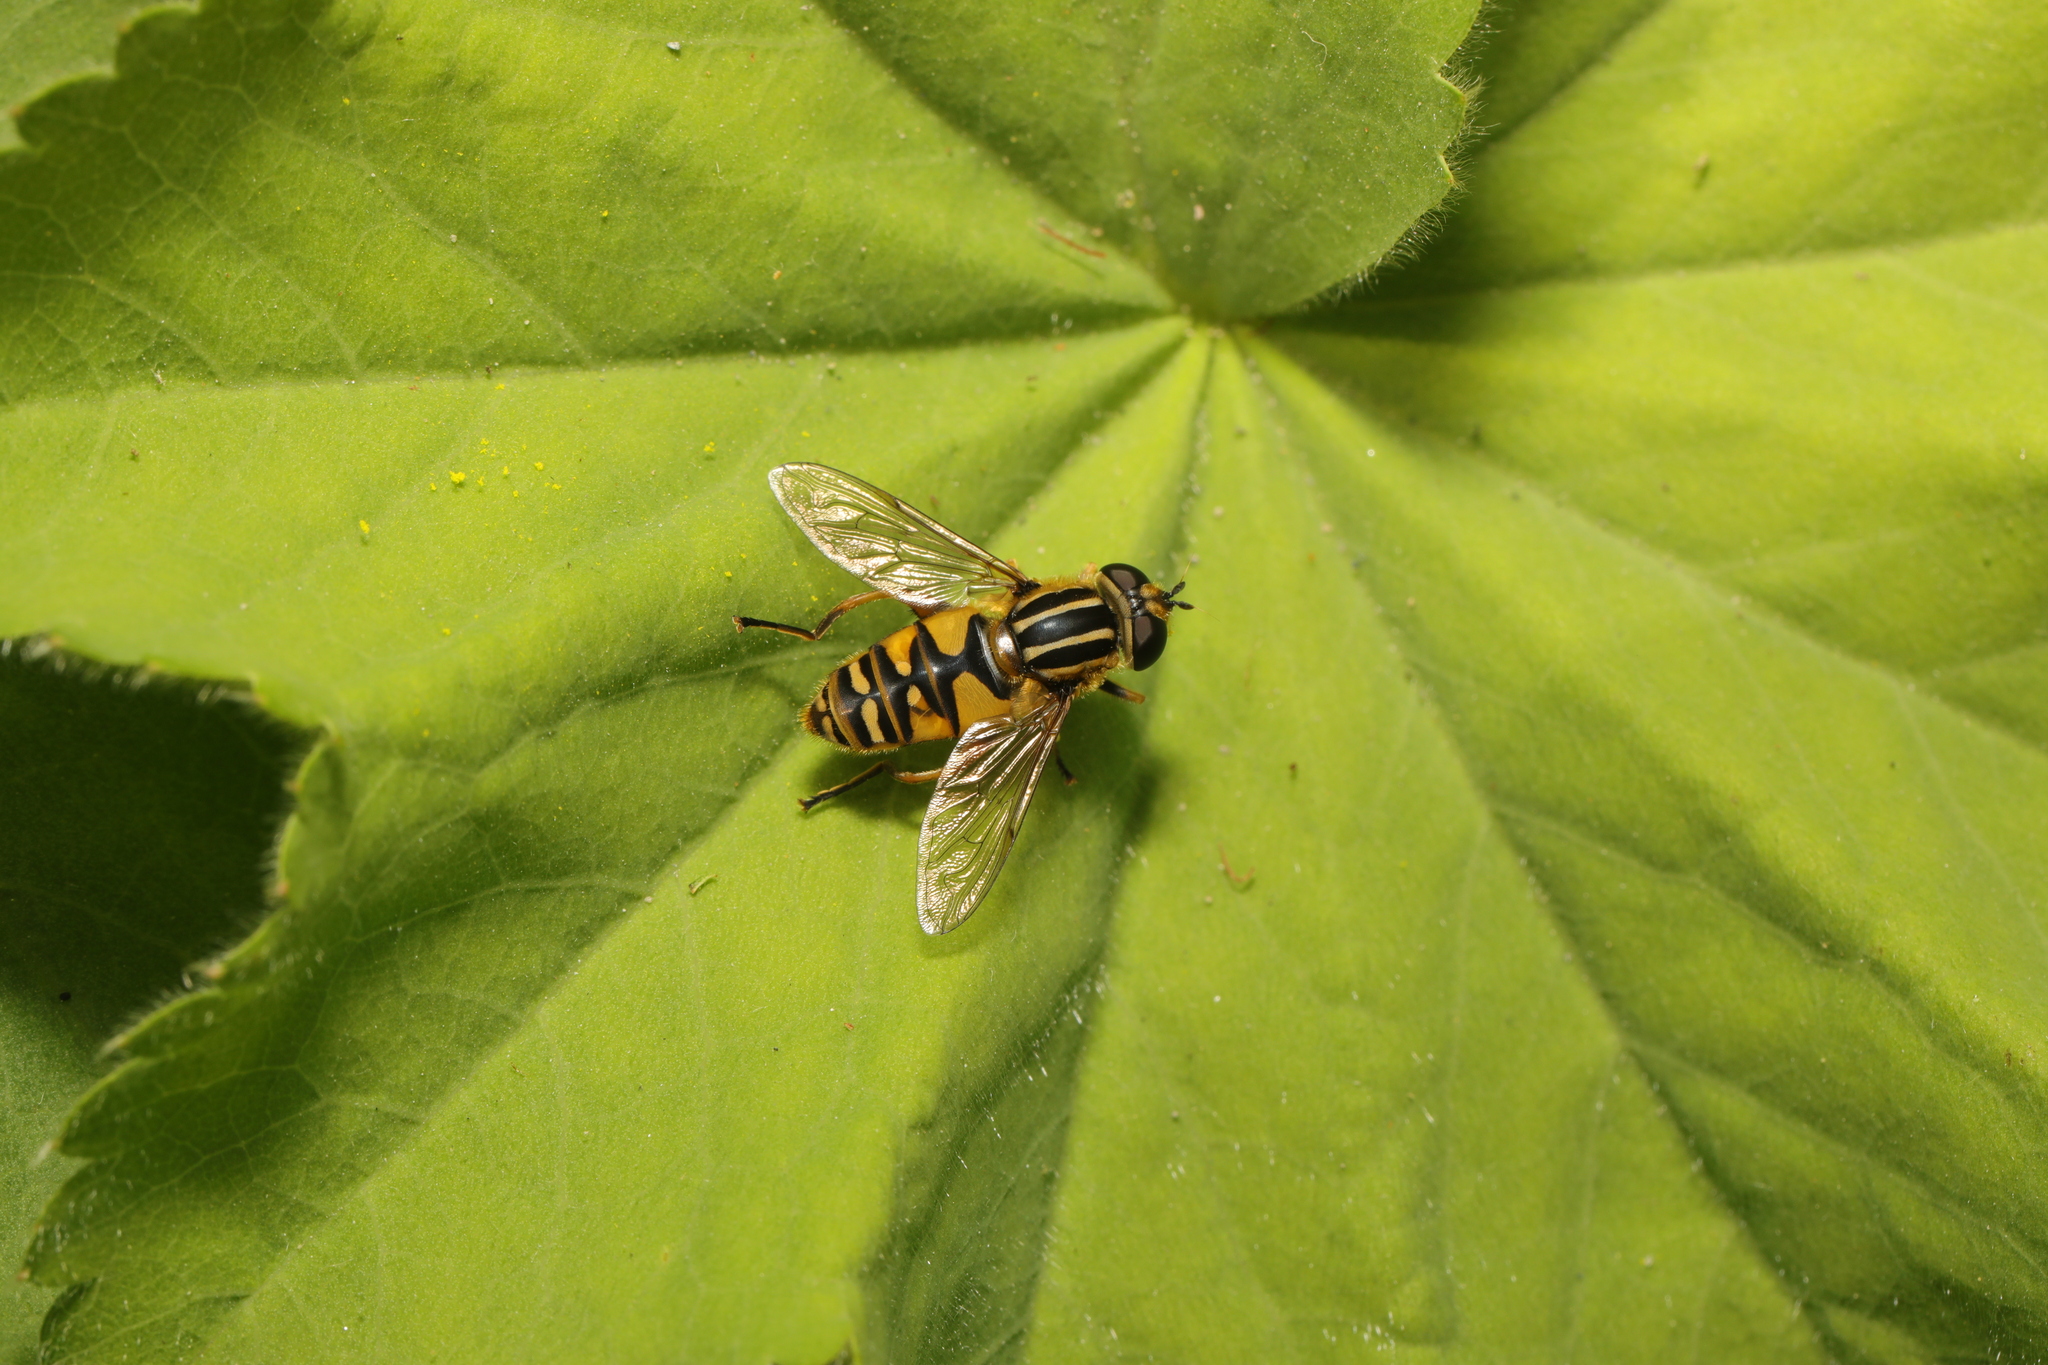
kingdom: Animalia
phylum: Arthropoda
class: Insecta
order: Diptera
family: Syrphidae
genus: Helophilus
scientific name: Helophilus pendulus
